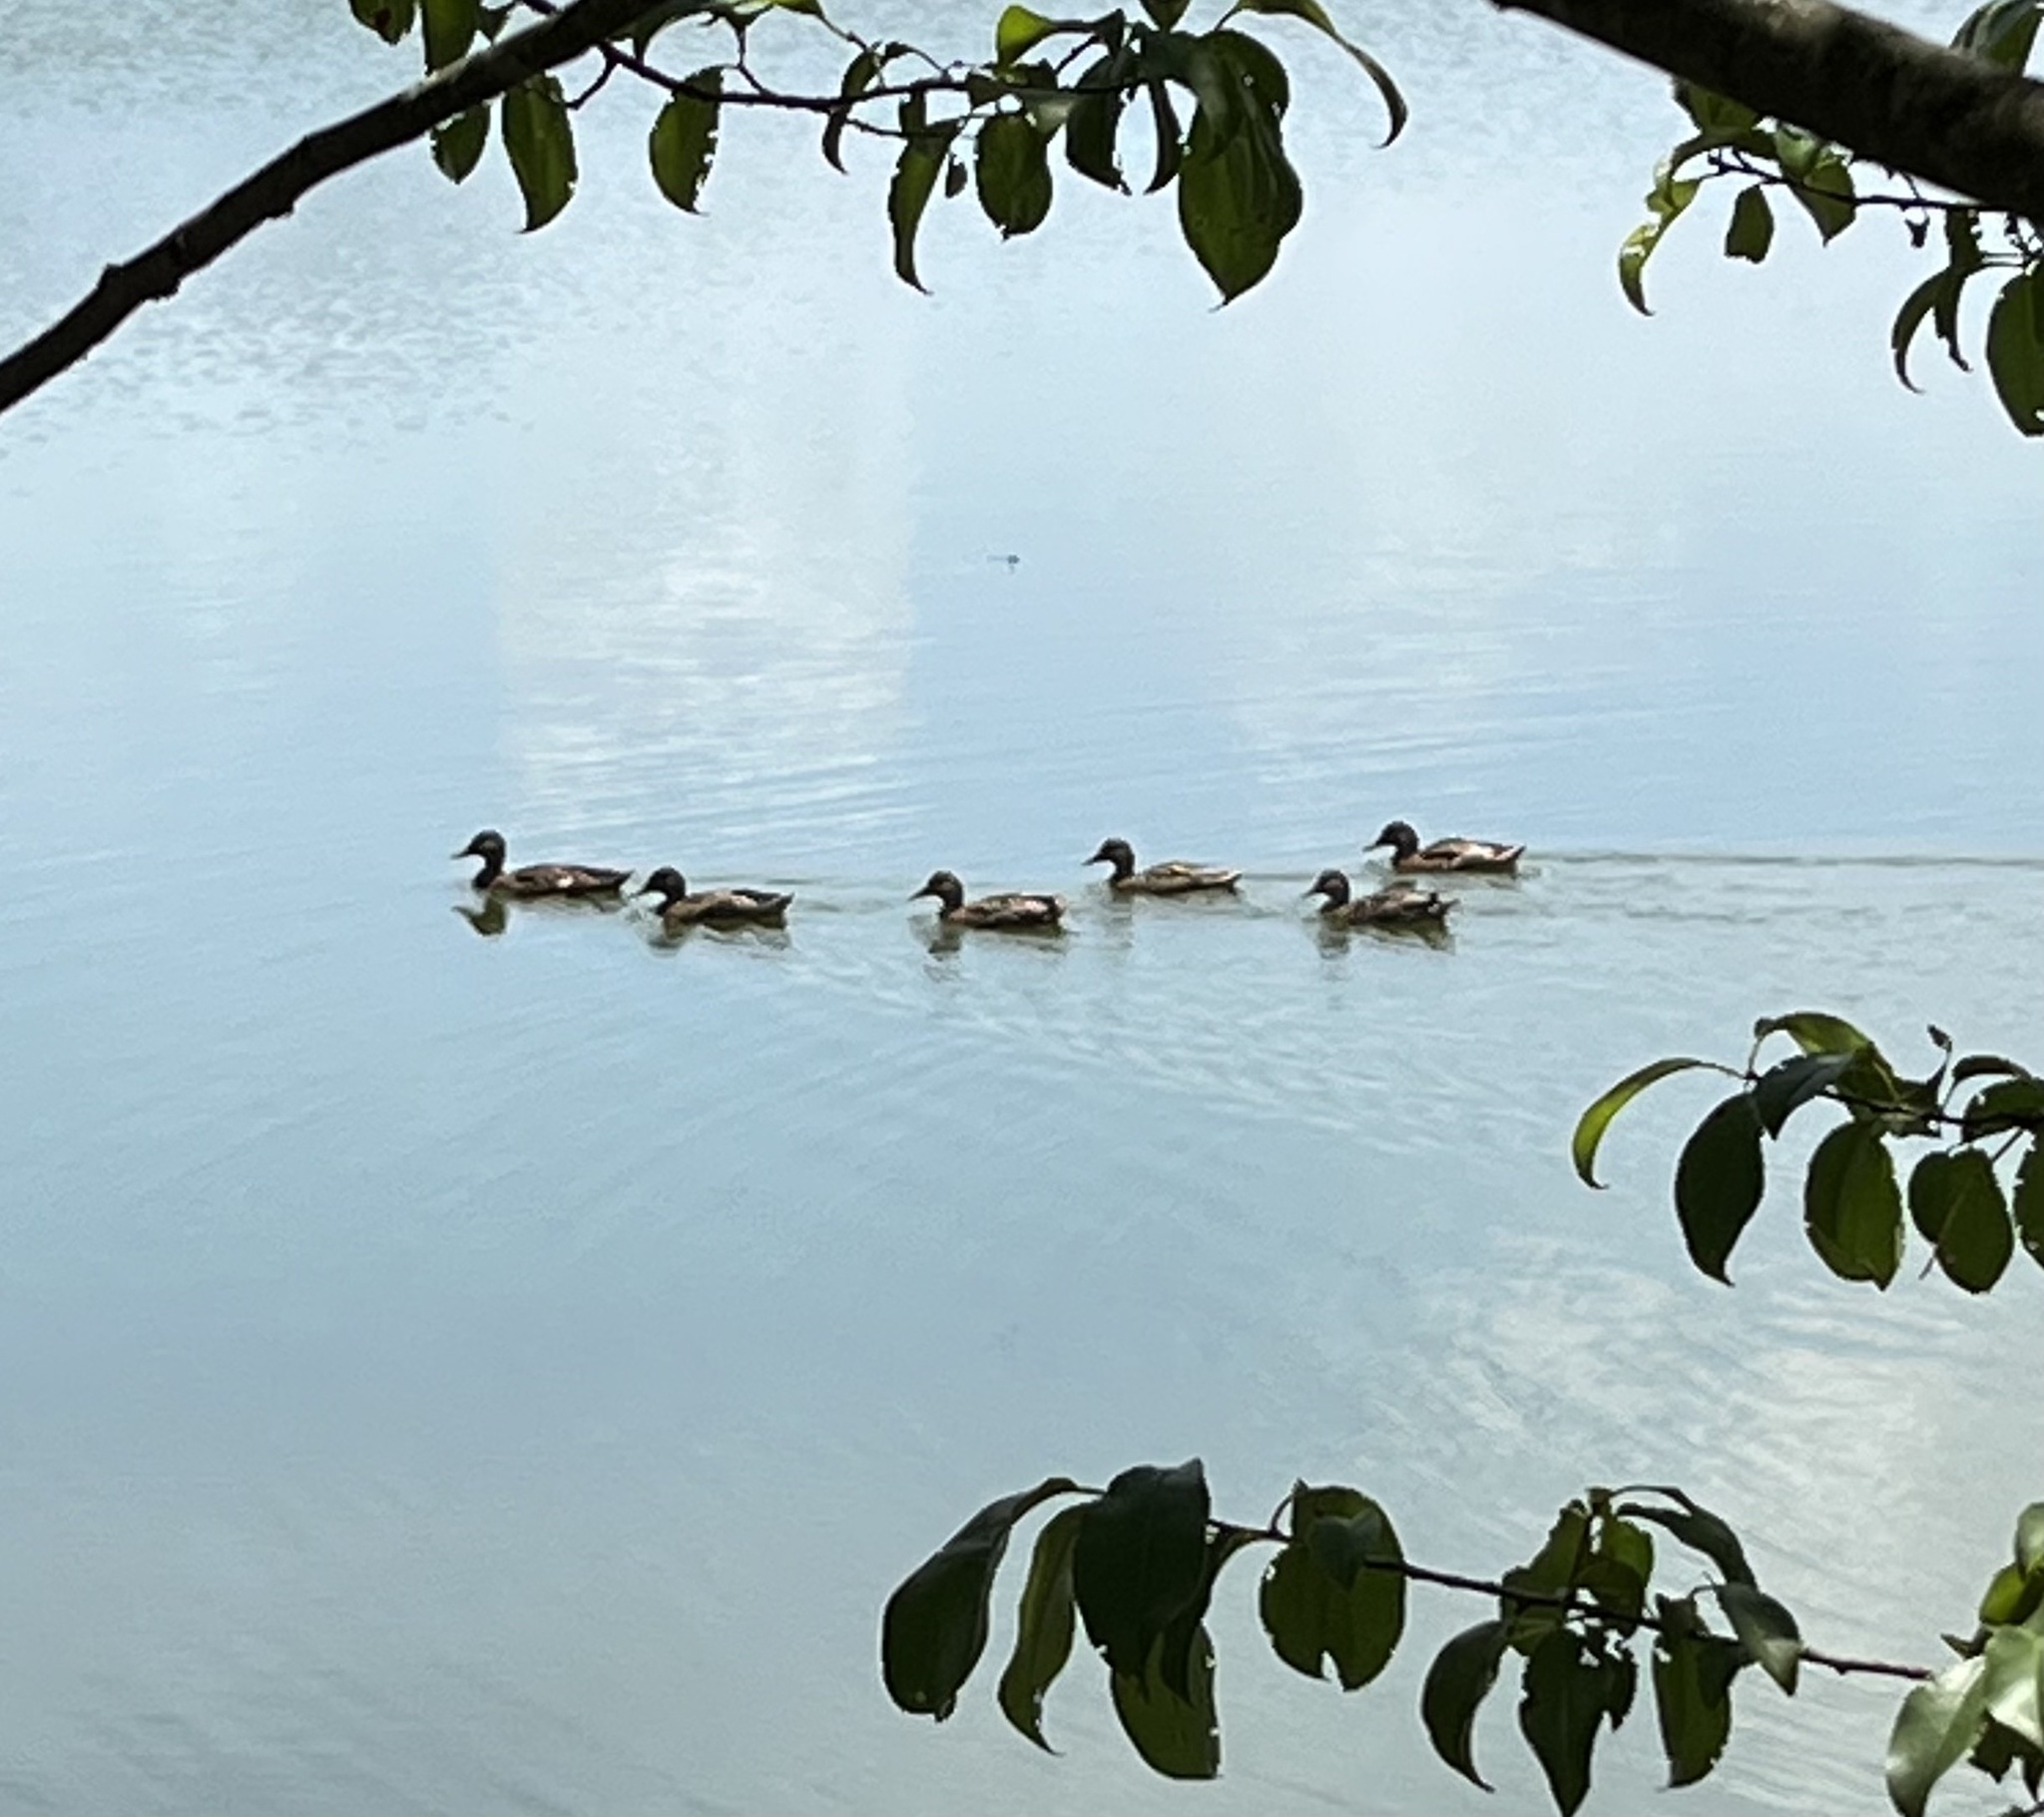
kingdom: Animalia
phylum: Chordata
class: Aves
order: Anseriformes
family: Anatidae
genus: Anas
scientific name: Anas platyrhynchos
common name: Mallard
